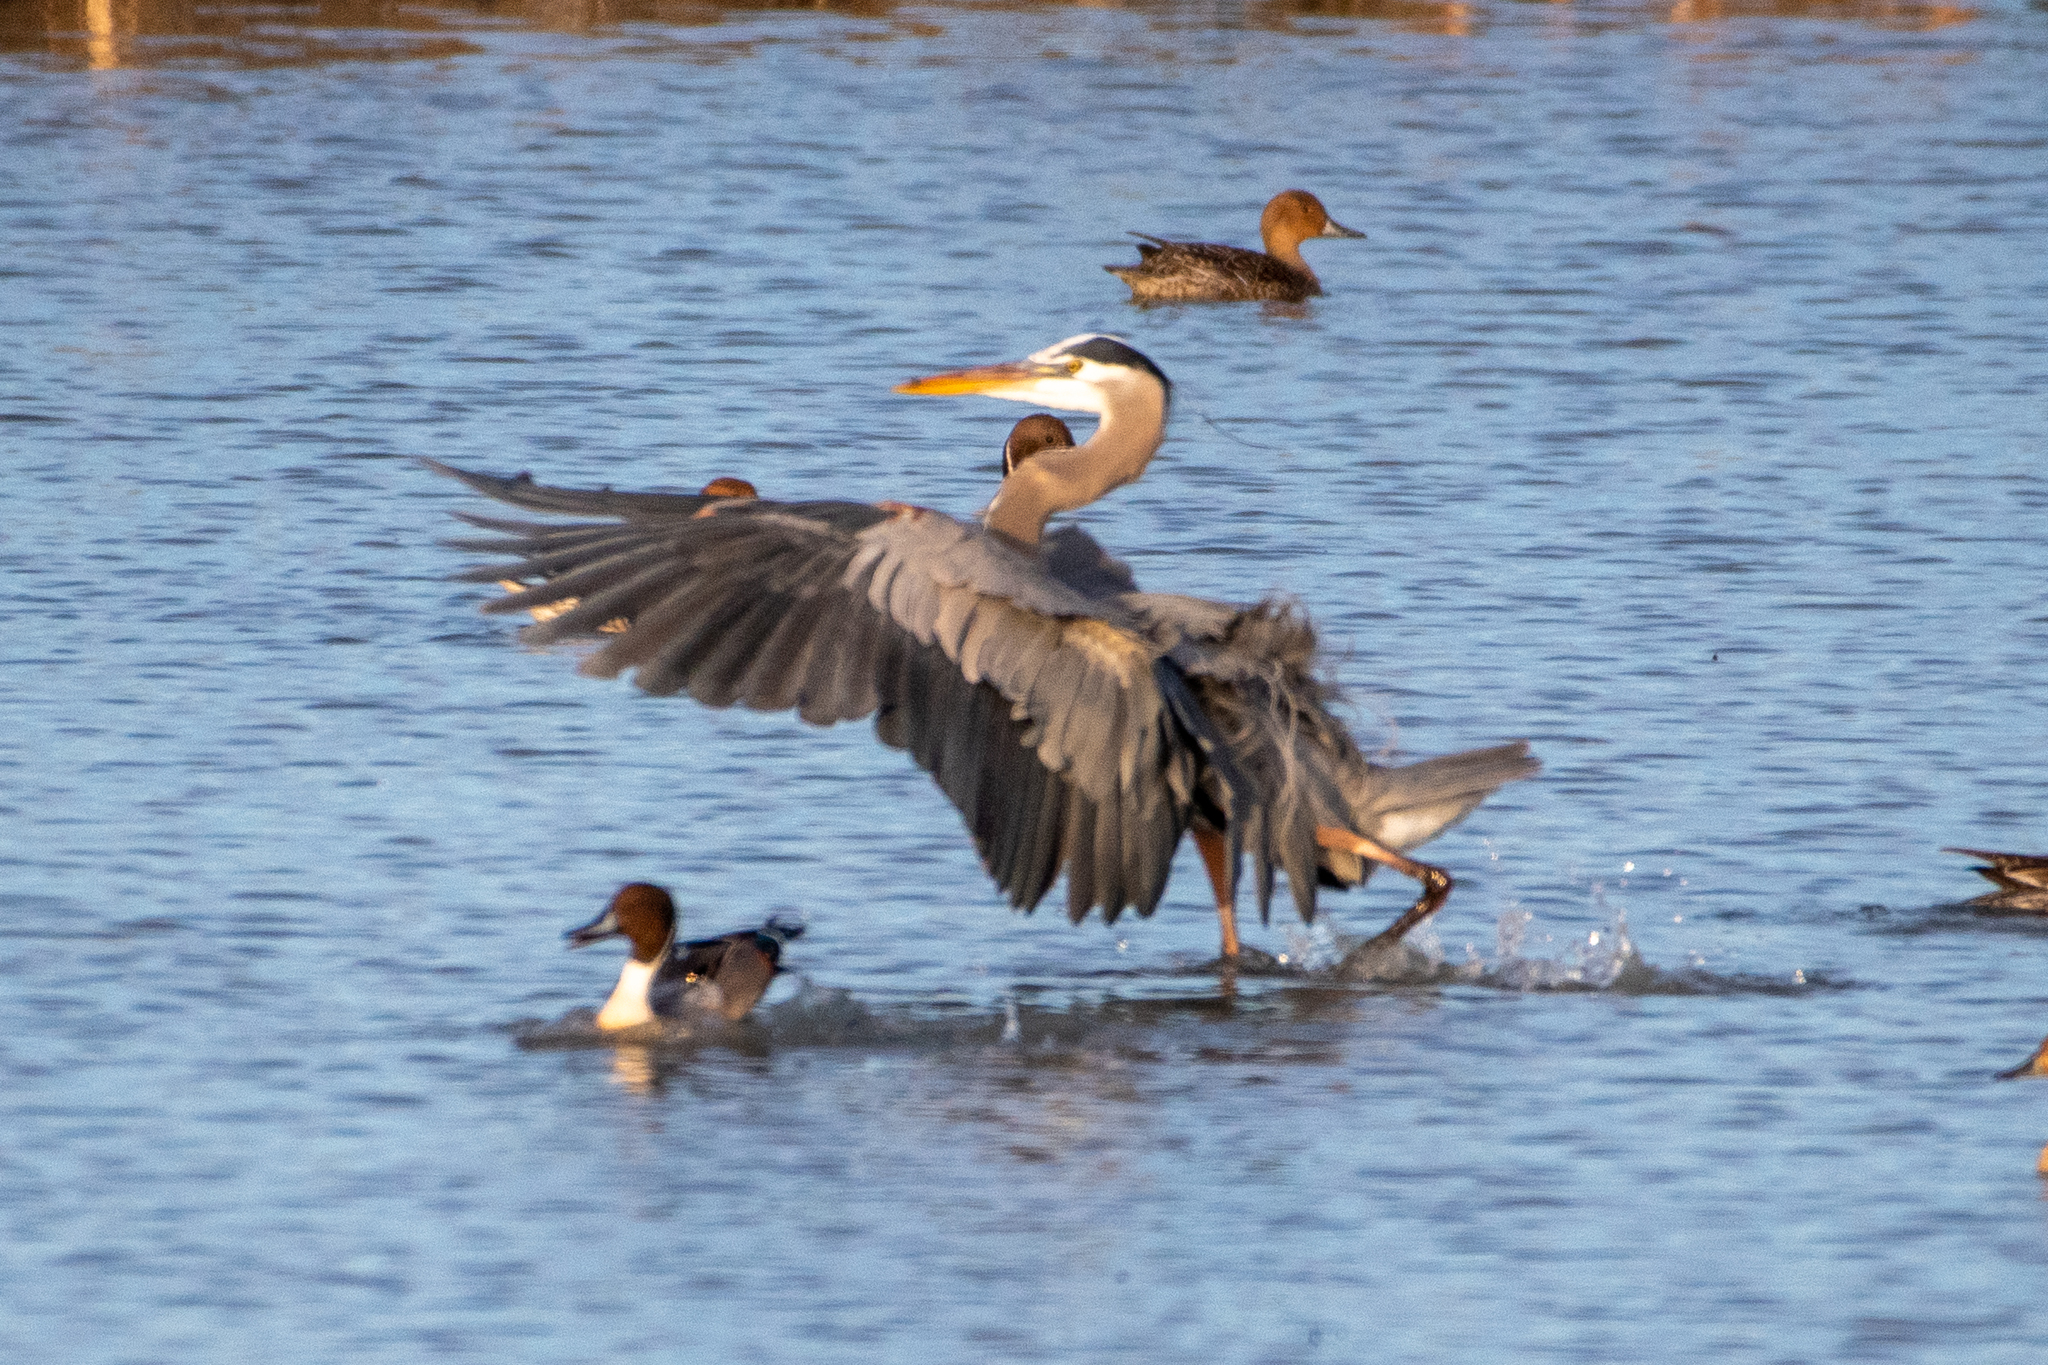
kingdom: Animalia
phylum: Chordata
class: Aves
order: Pelecaniformes
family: Ardeidae
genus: Ardea
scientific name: Ardea herodias
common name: Great blue heron
